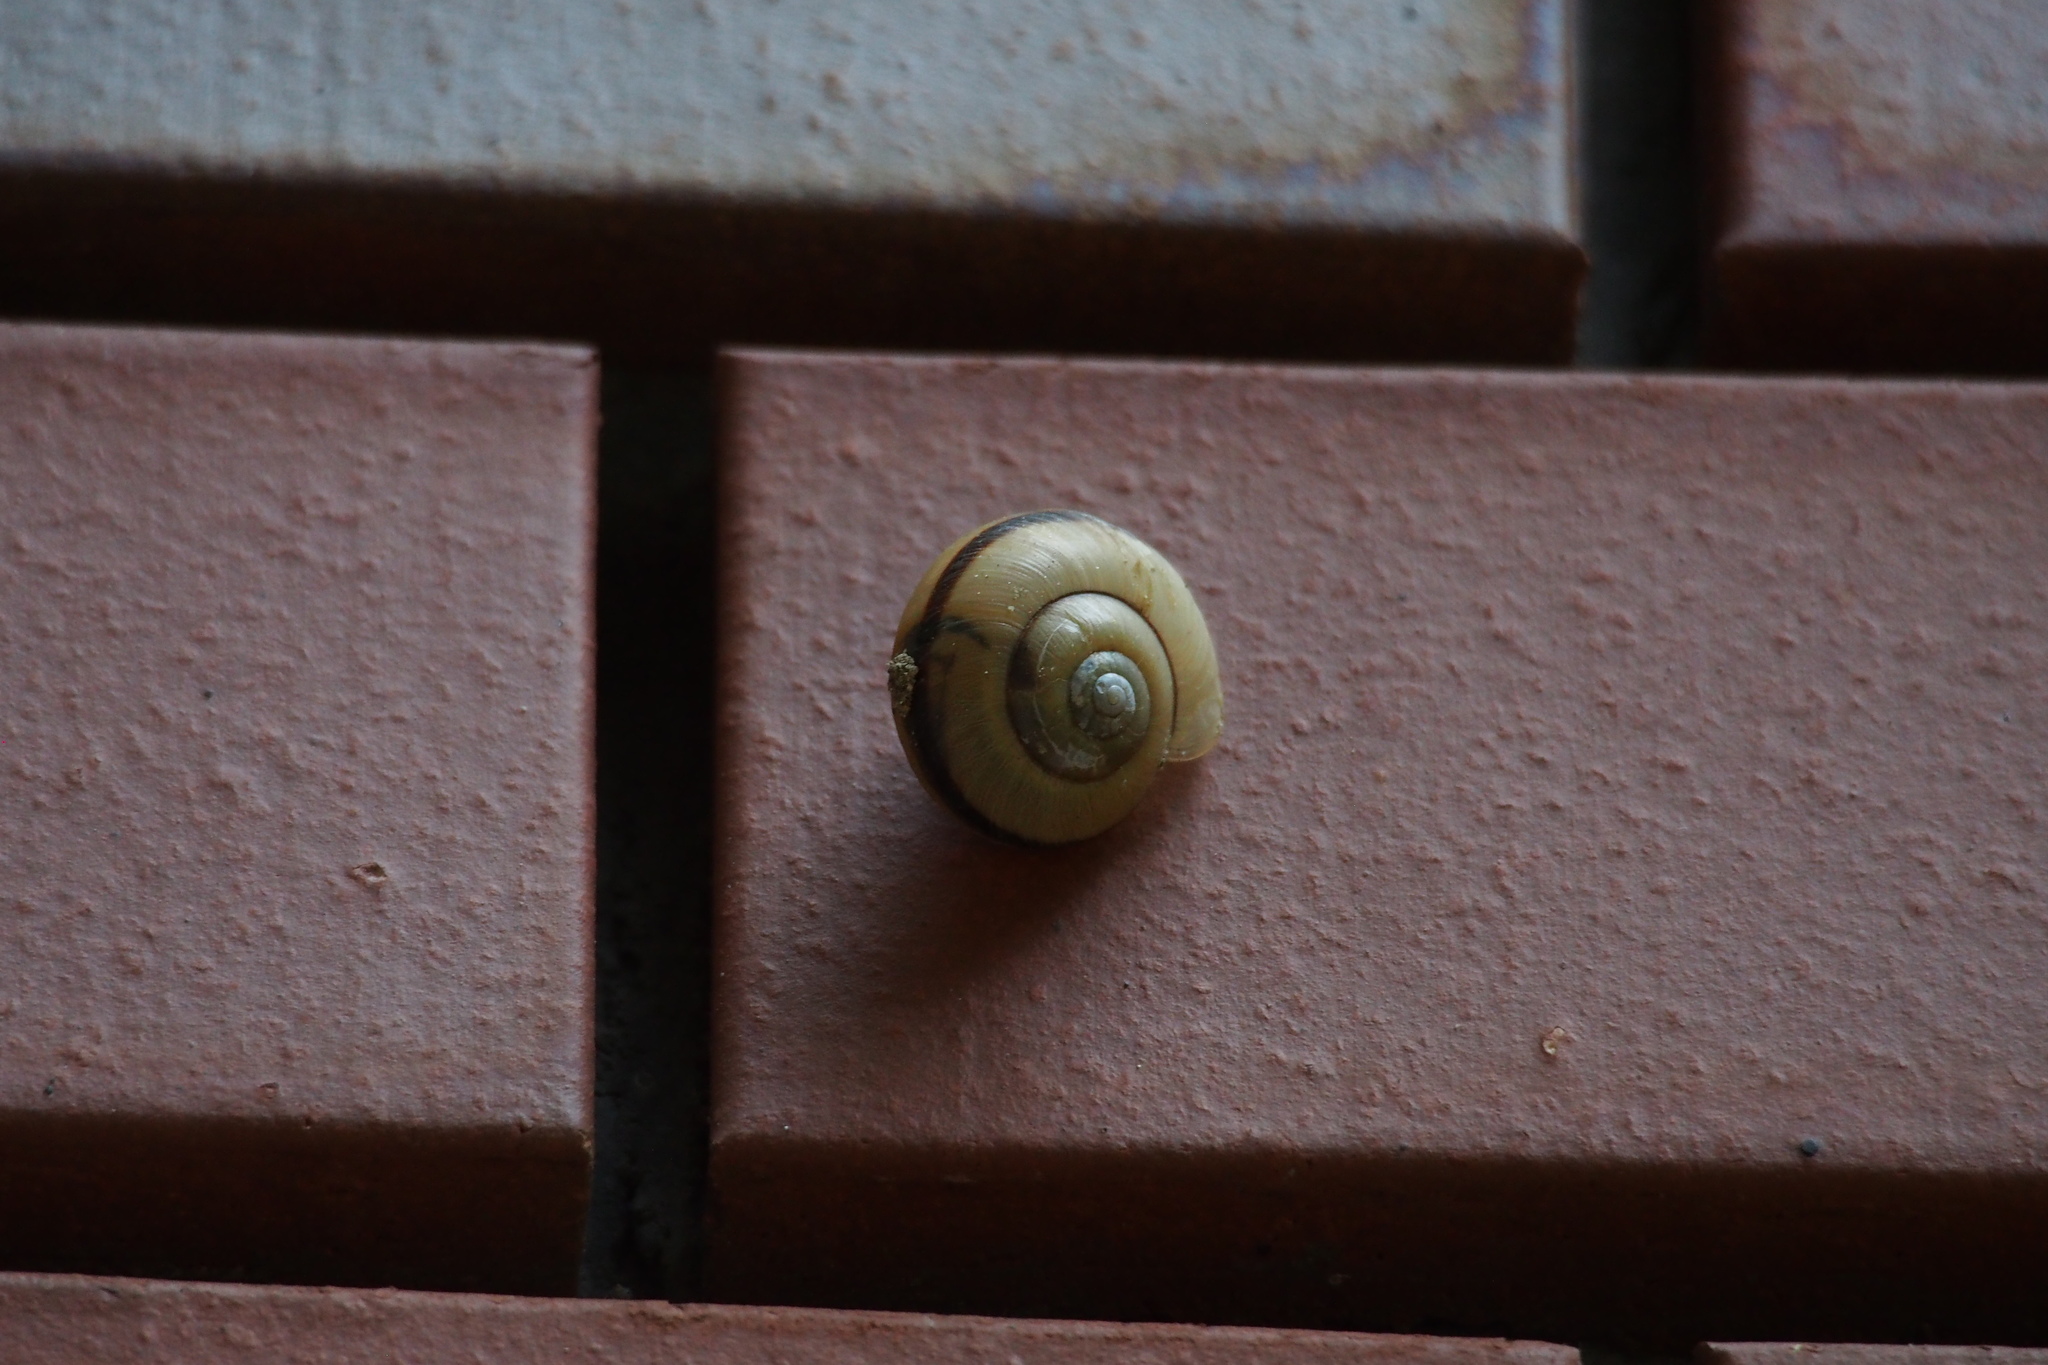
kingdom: Animalia
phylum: Mollusca
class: Gastropoda
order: Stylommatophora
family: Camaenidae
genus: Euhadra
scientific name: Euhadra amaliae
